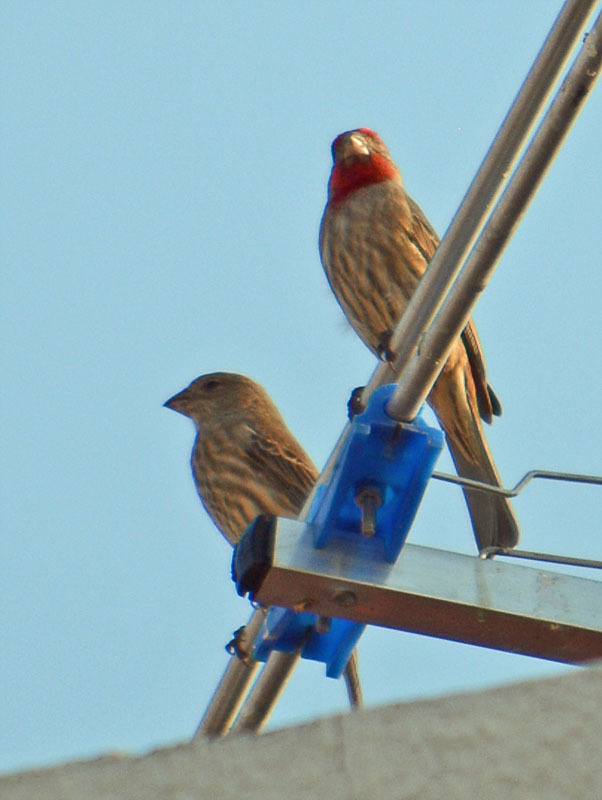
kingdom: Animalia
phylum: Chordata
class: Aves
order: Passeriformes
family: Fringillidae
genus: Haemorhous
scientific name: Haemorhous mexicanus
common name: House finch
